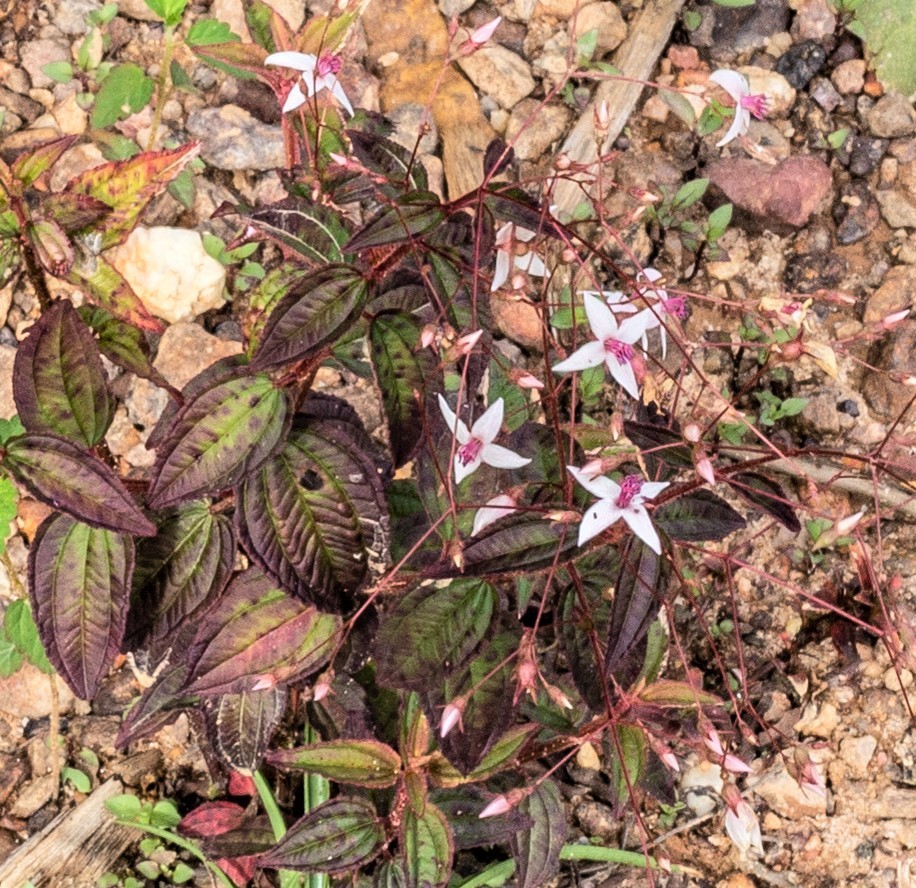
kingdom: Plantae
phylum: Tracheophyta
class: Magnoliopsida
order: Myrtales
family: Melastomataceae
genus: Nepsera
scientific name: Nepsera aquatica
